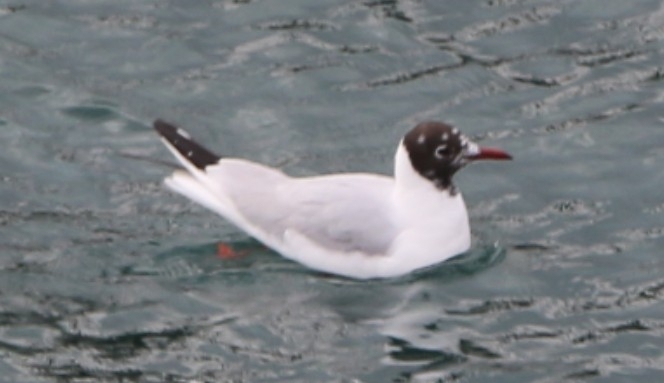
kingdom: Animalia
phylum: Chordata
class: Aves
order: Charadriiformes
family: Laridae
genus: Chroicocephalus
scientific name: Chroicocephalus ridibundus
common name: Black-headed gull
